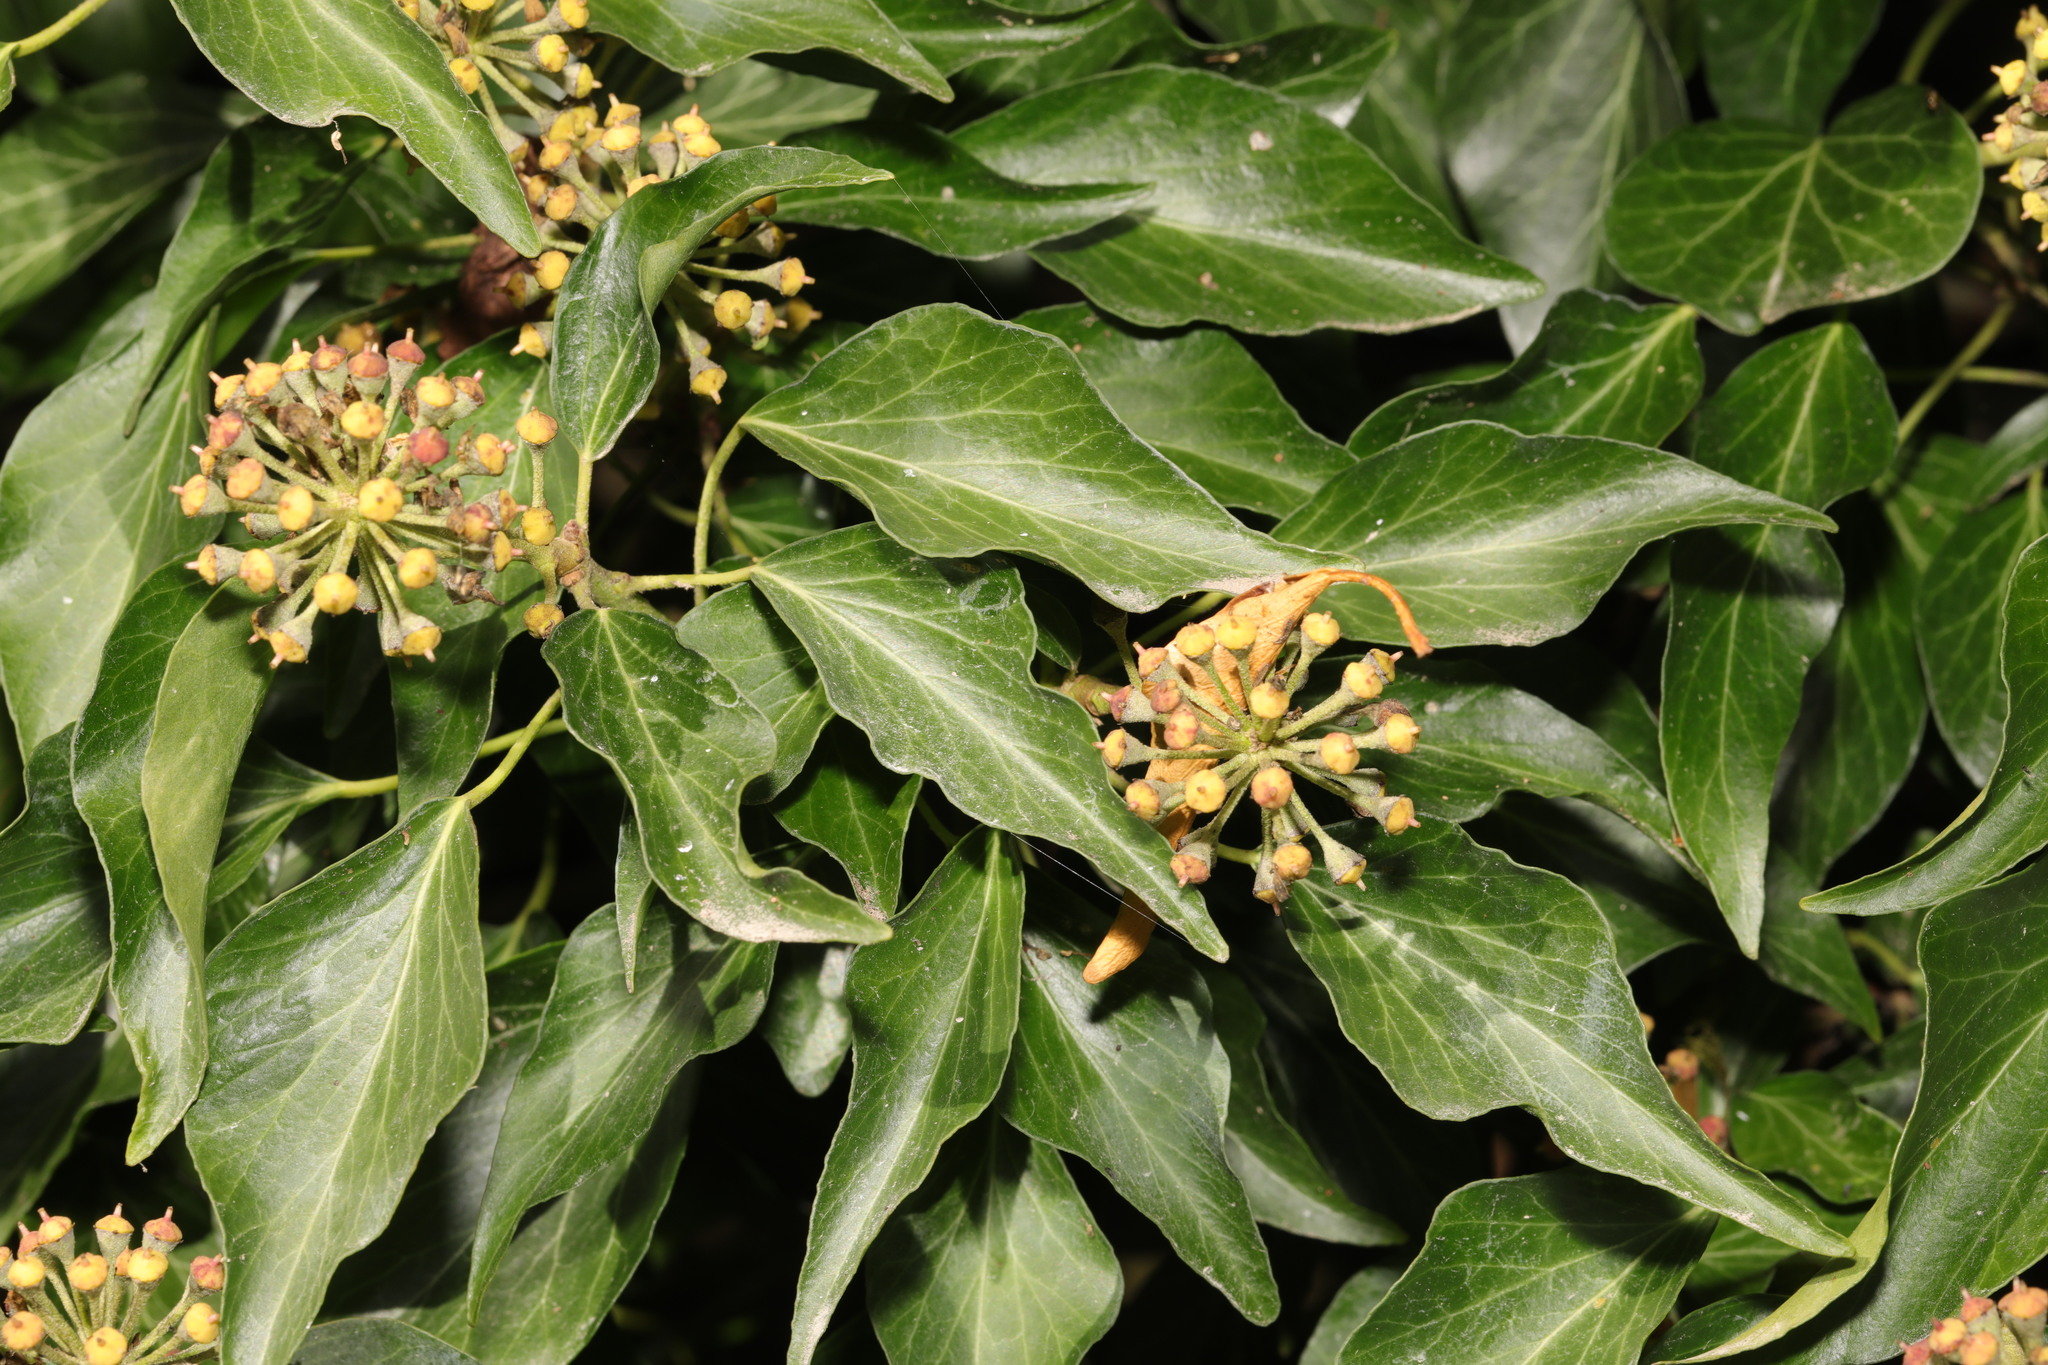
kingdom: Plantae
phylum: Tracheophyta
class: Magnoliopsida
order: Apiales
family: Araliaceae
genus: Hedera
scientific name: Hedera helix
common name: Ivy
